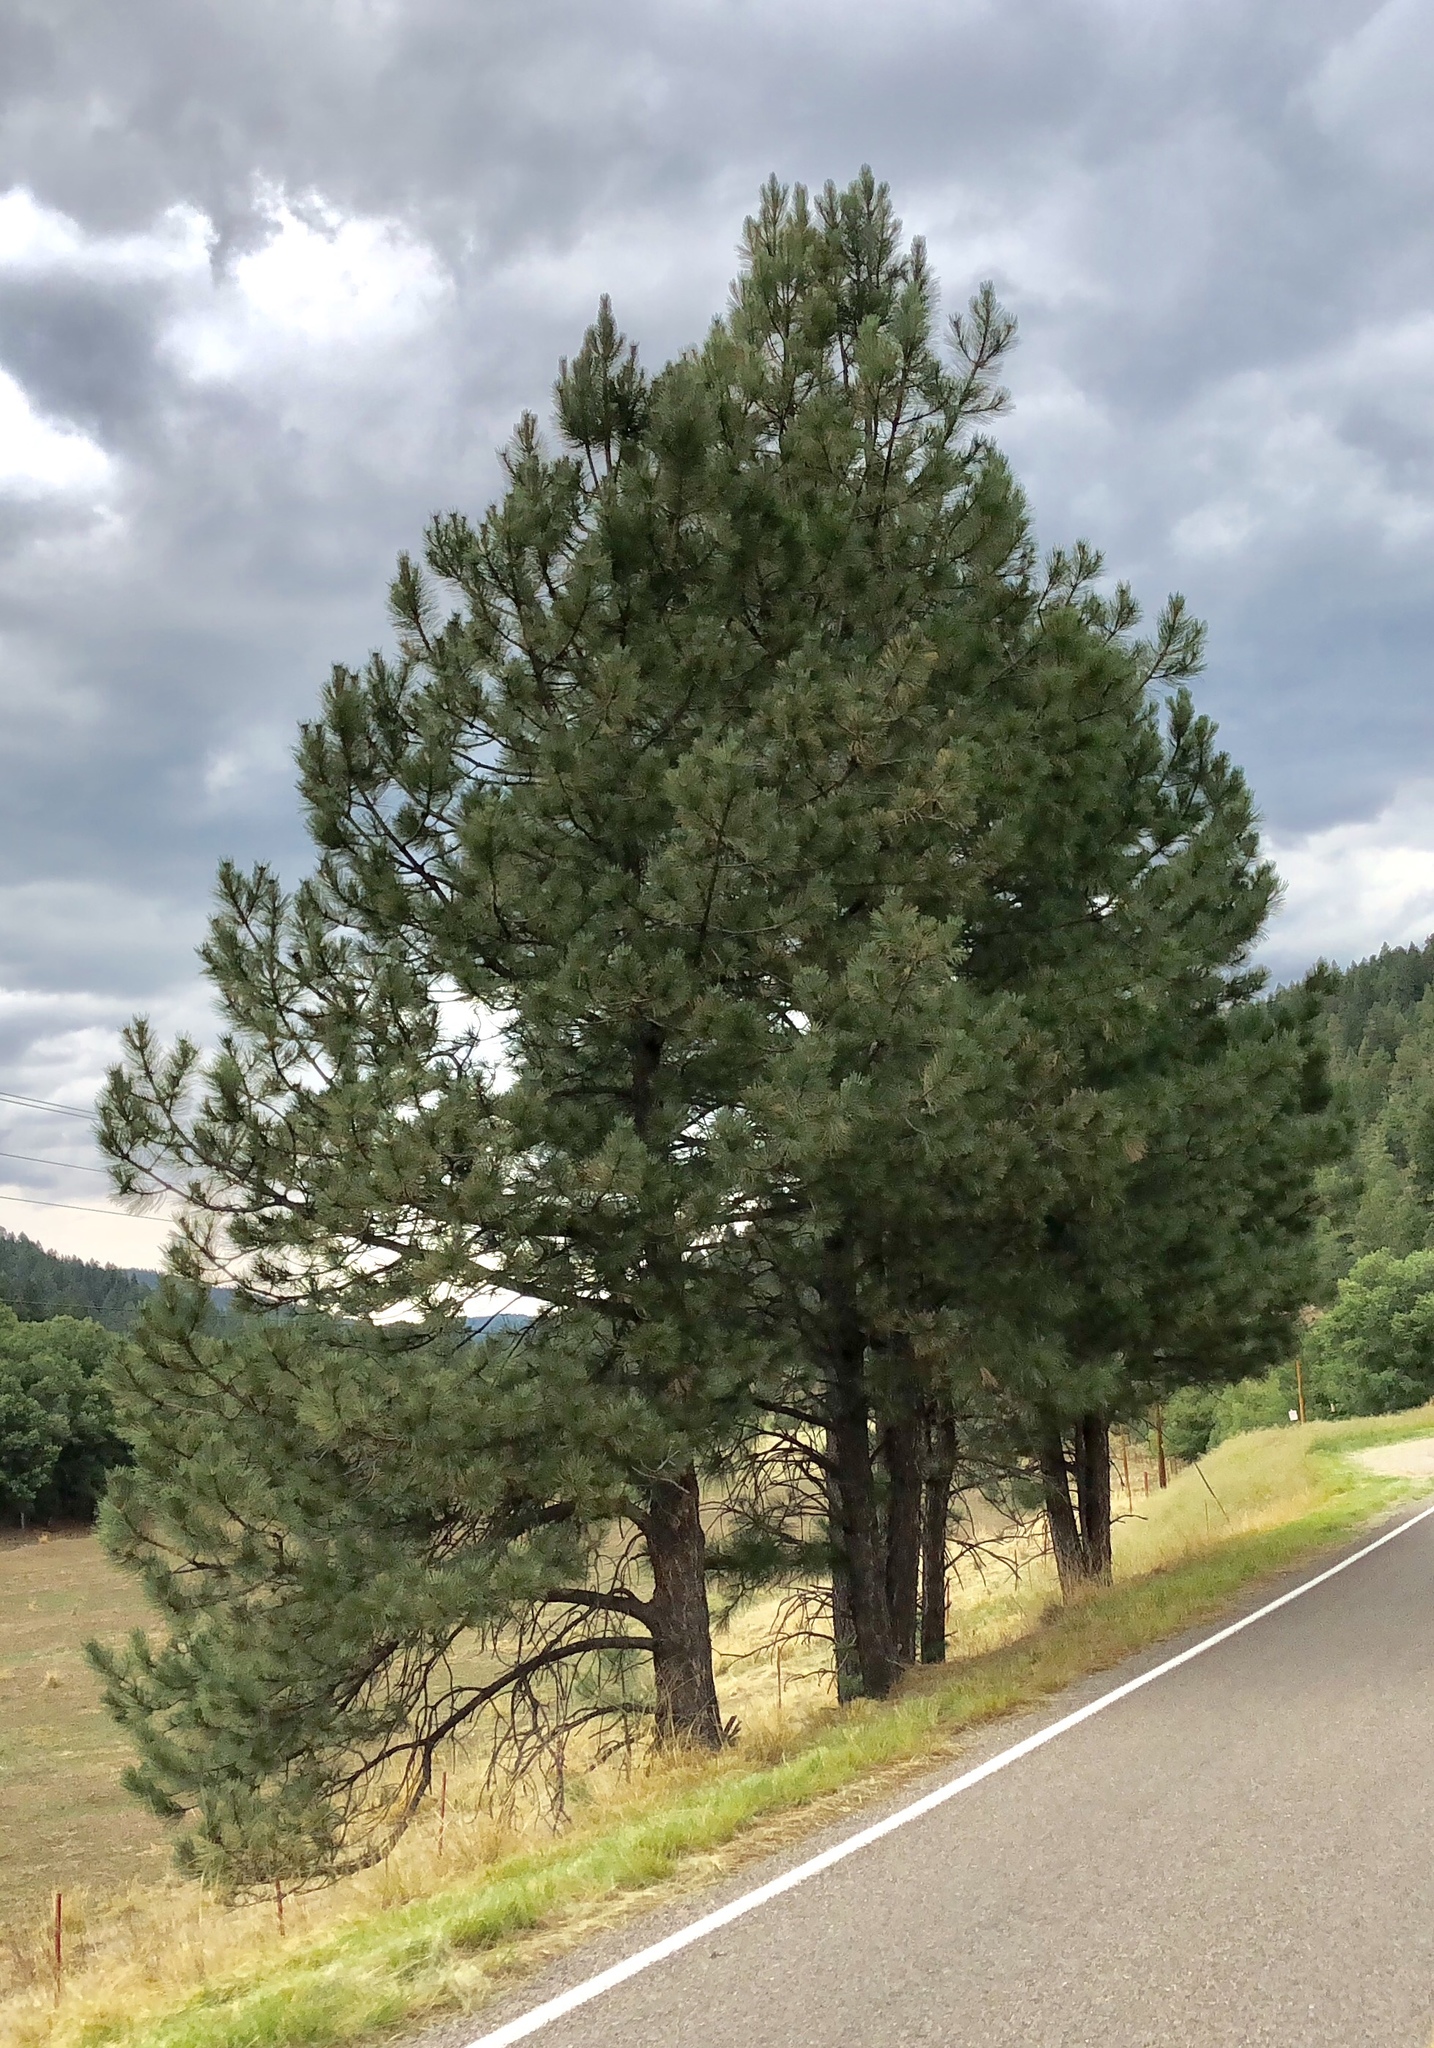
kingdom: Plantae
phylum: Tracheophyta
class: Pinopsida
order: Pinales
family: Pinaceae
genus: Pinus
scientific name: Pinus ponderosa
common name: Western yellow-pine
